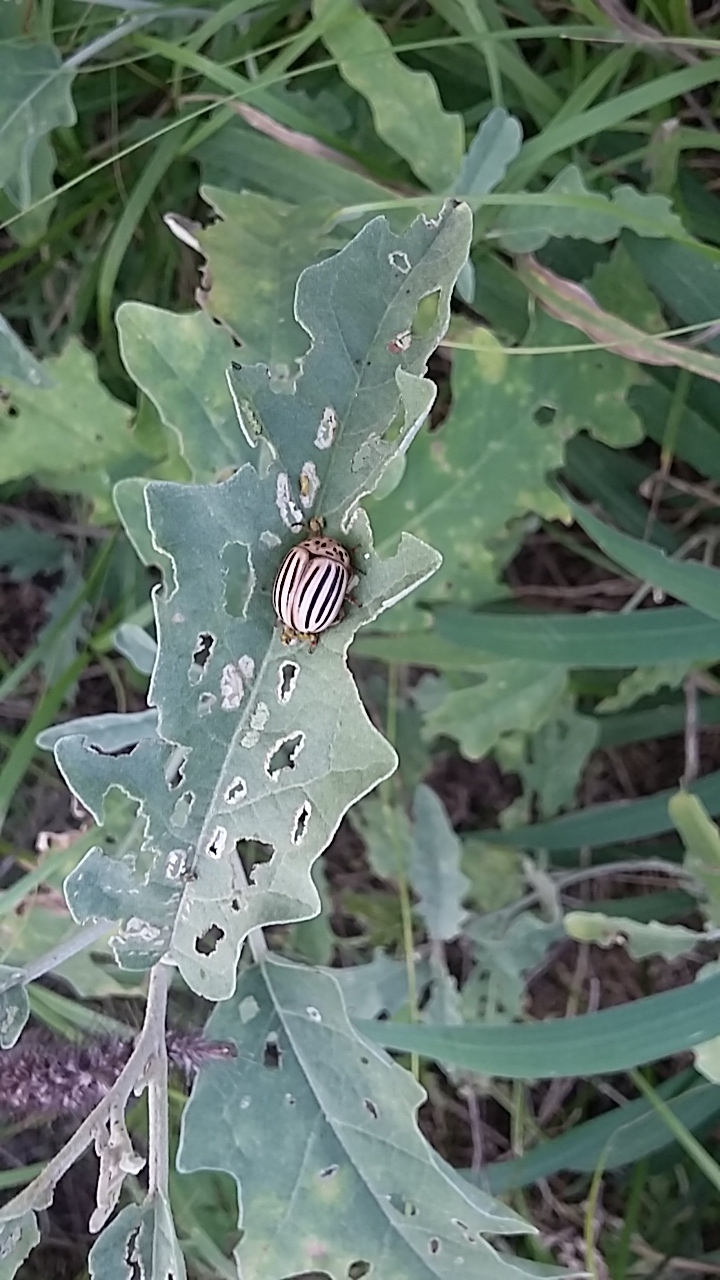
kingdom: Animalia
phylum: Arthropoda
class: Insecta
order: Coleoptera
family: Chrysomelidae
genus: Leptinotarsa
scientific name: Leptinotarsa texana
